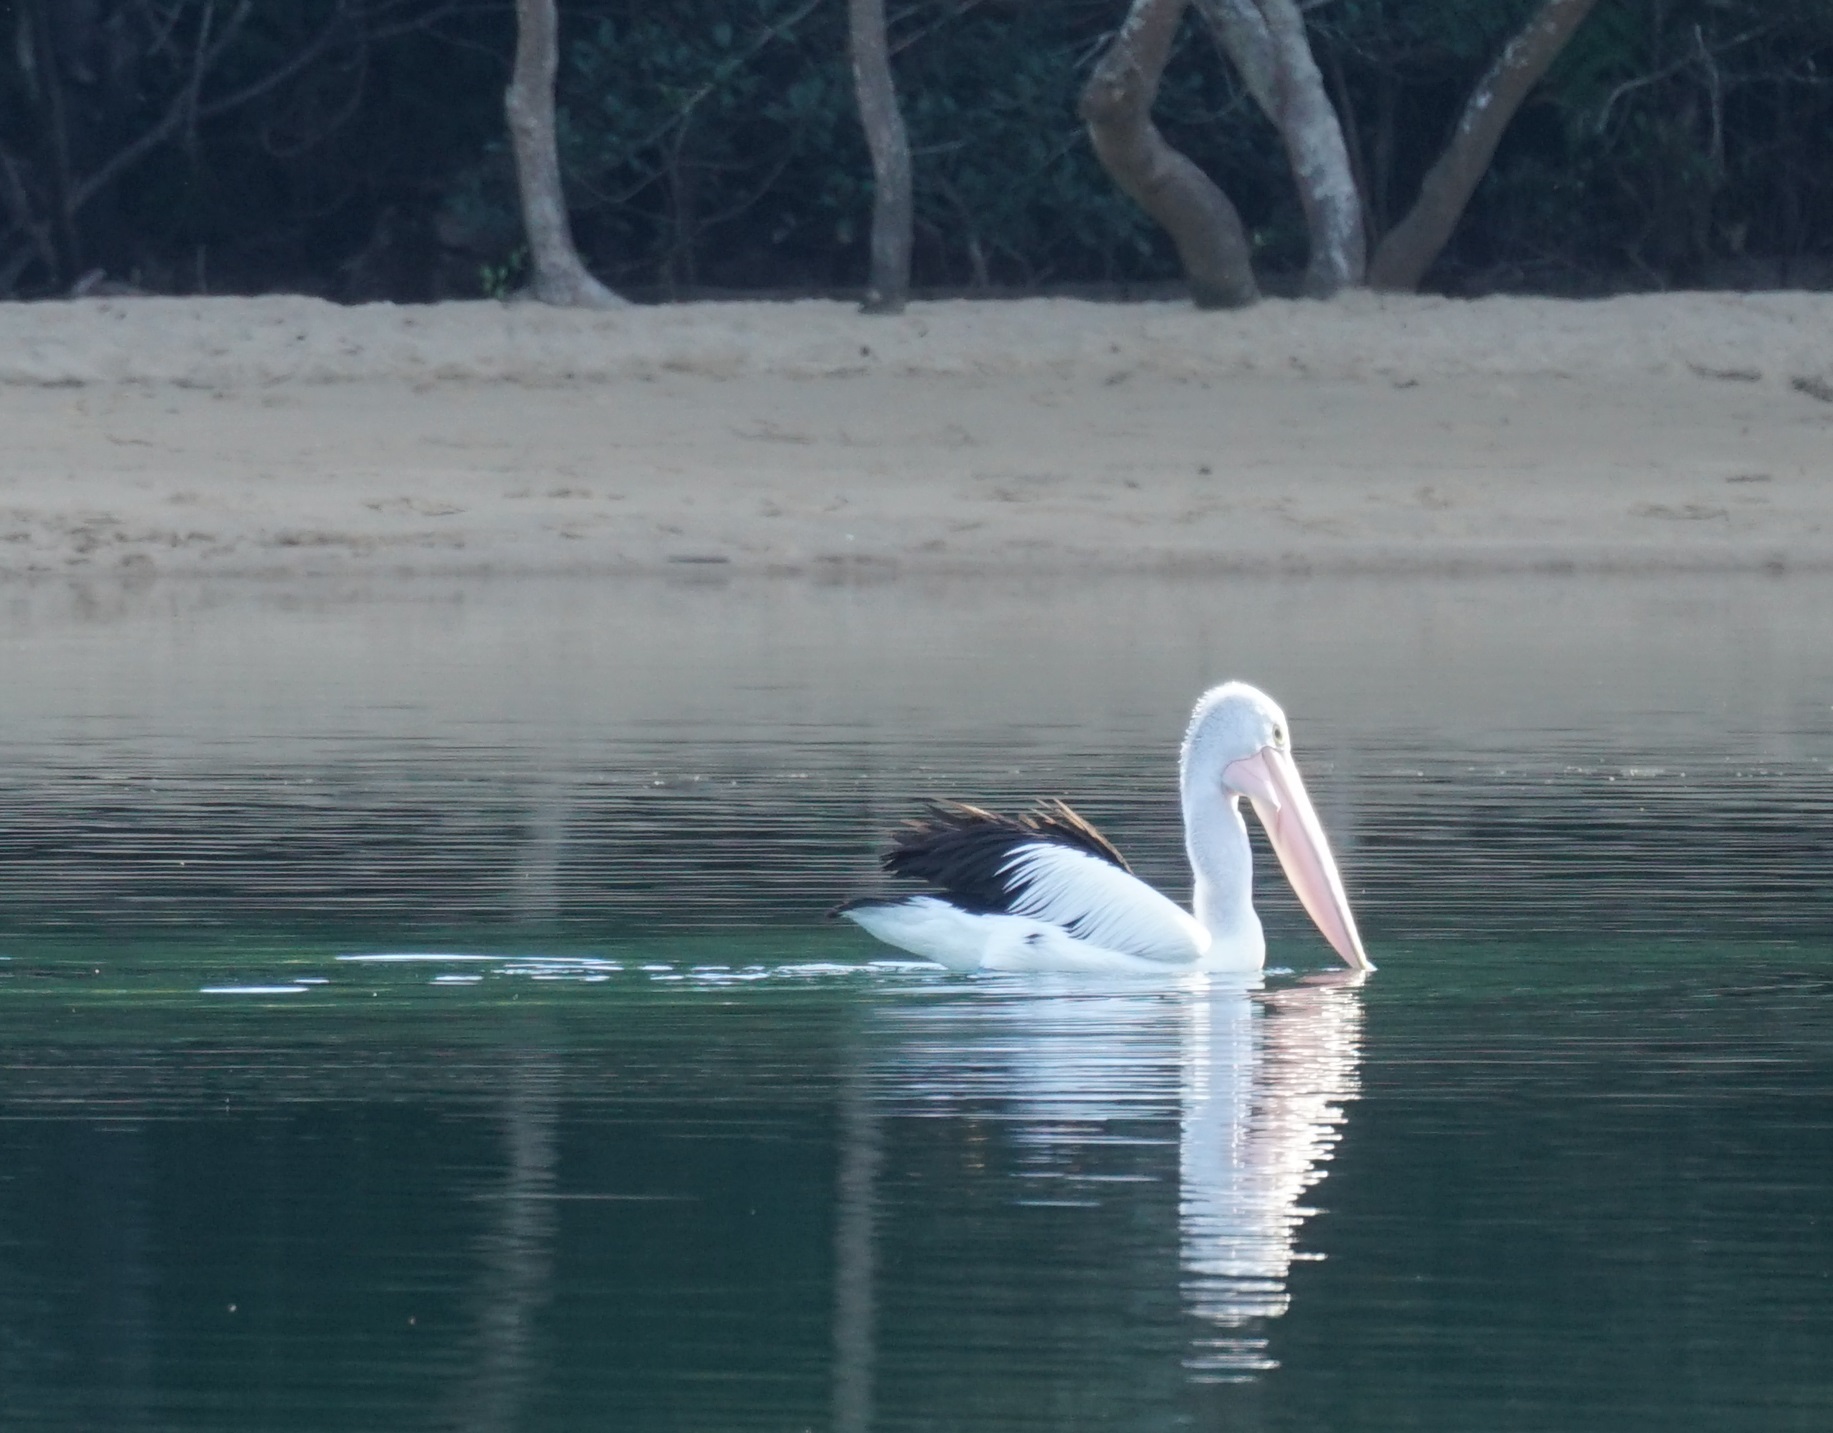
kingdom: Animalia
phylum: Chordata
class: Aves
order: Pelecaniformes
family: Pelecanidae
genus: Pelecanus
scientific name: Pelecanus conspicillatus
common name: Australian pelican
